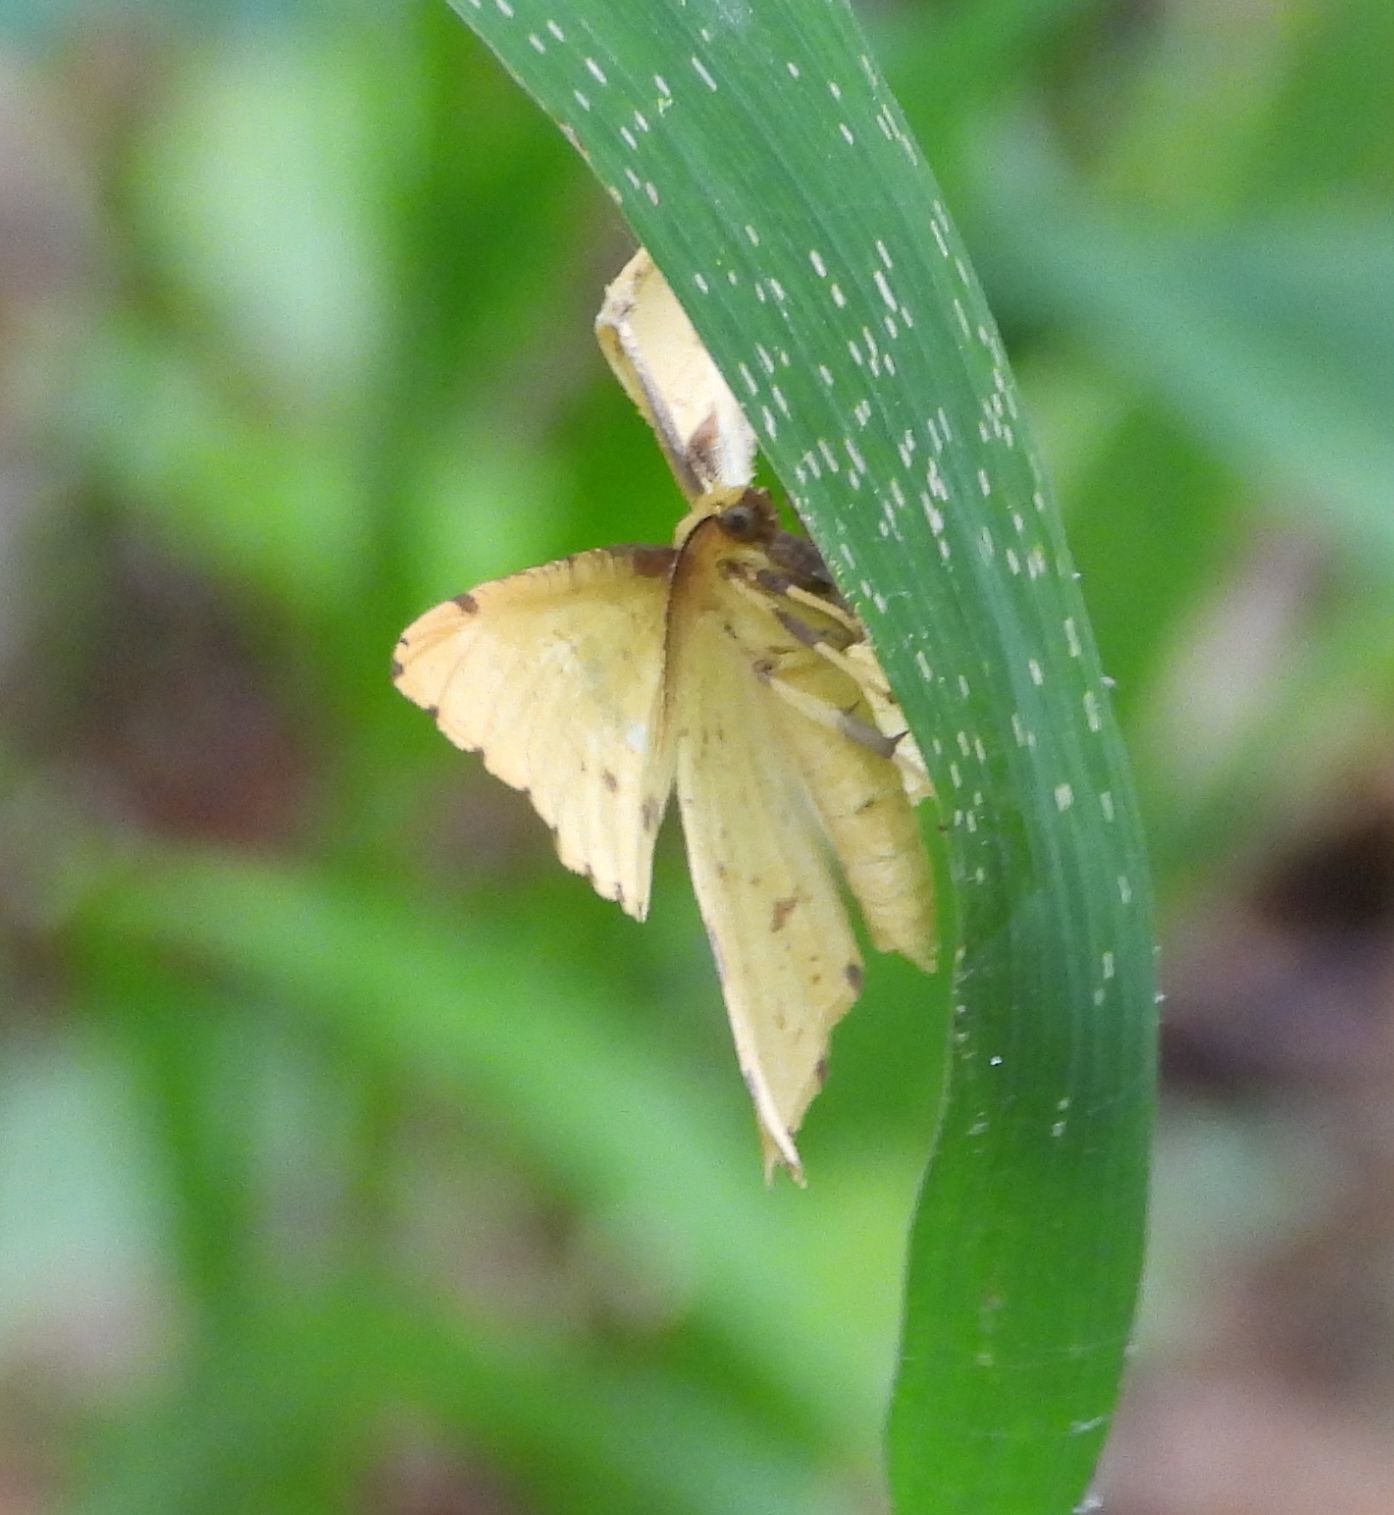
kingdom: Animalia
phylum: Arthropoda
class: Insecta
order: Lepidoptera
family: Geometridae
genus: Xanthotype
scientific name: Xanthotype
